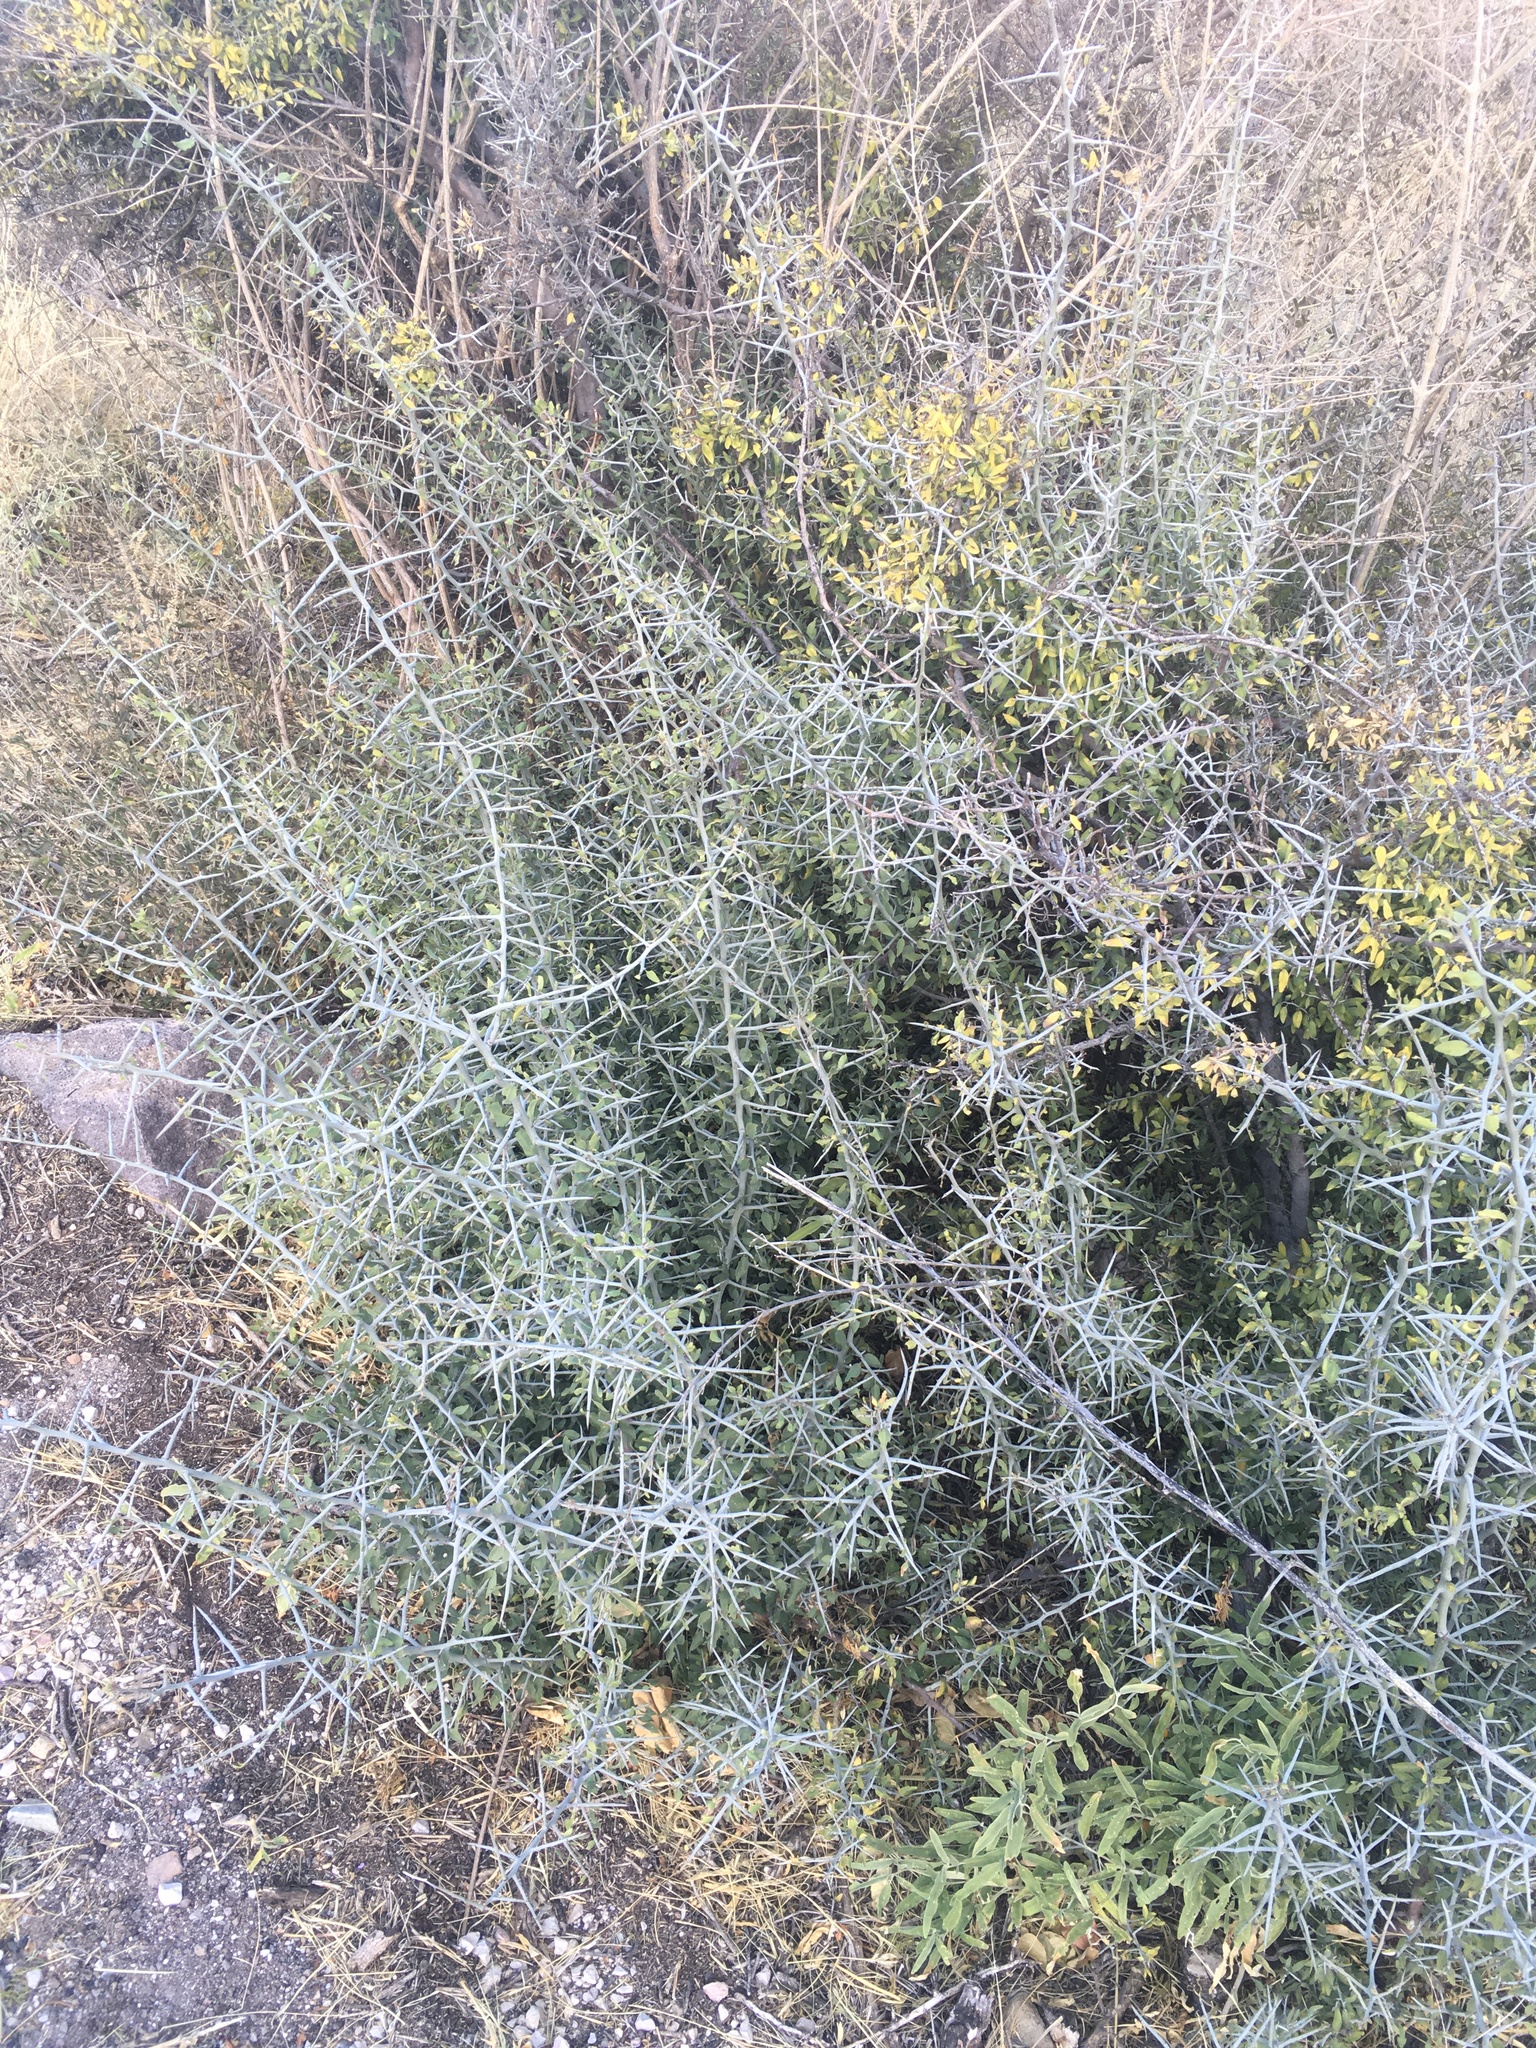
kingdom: Plantae
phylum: Tracheophyta
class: Magnoliopsida
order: Rosales
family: Rhamnaceae
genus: Sarcomphalus
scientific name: Sarcomphalus obtusifolius
